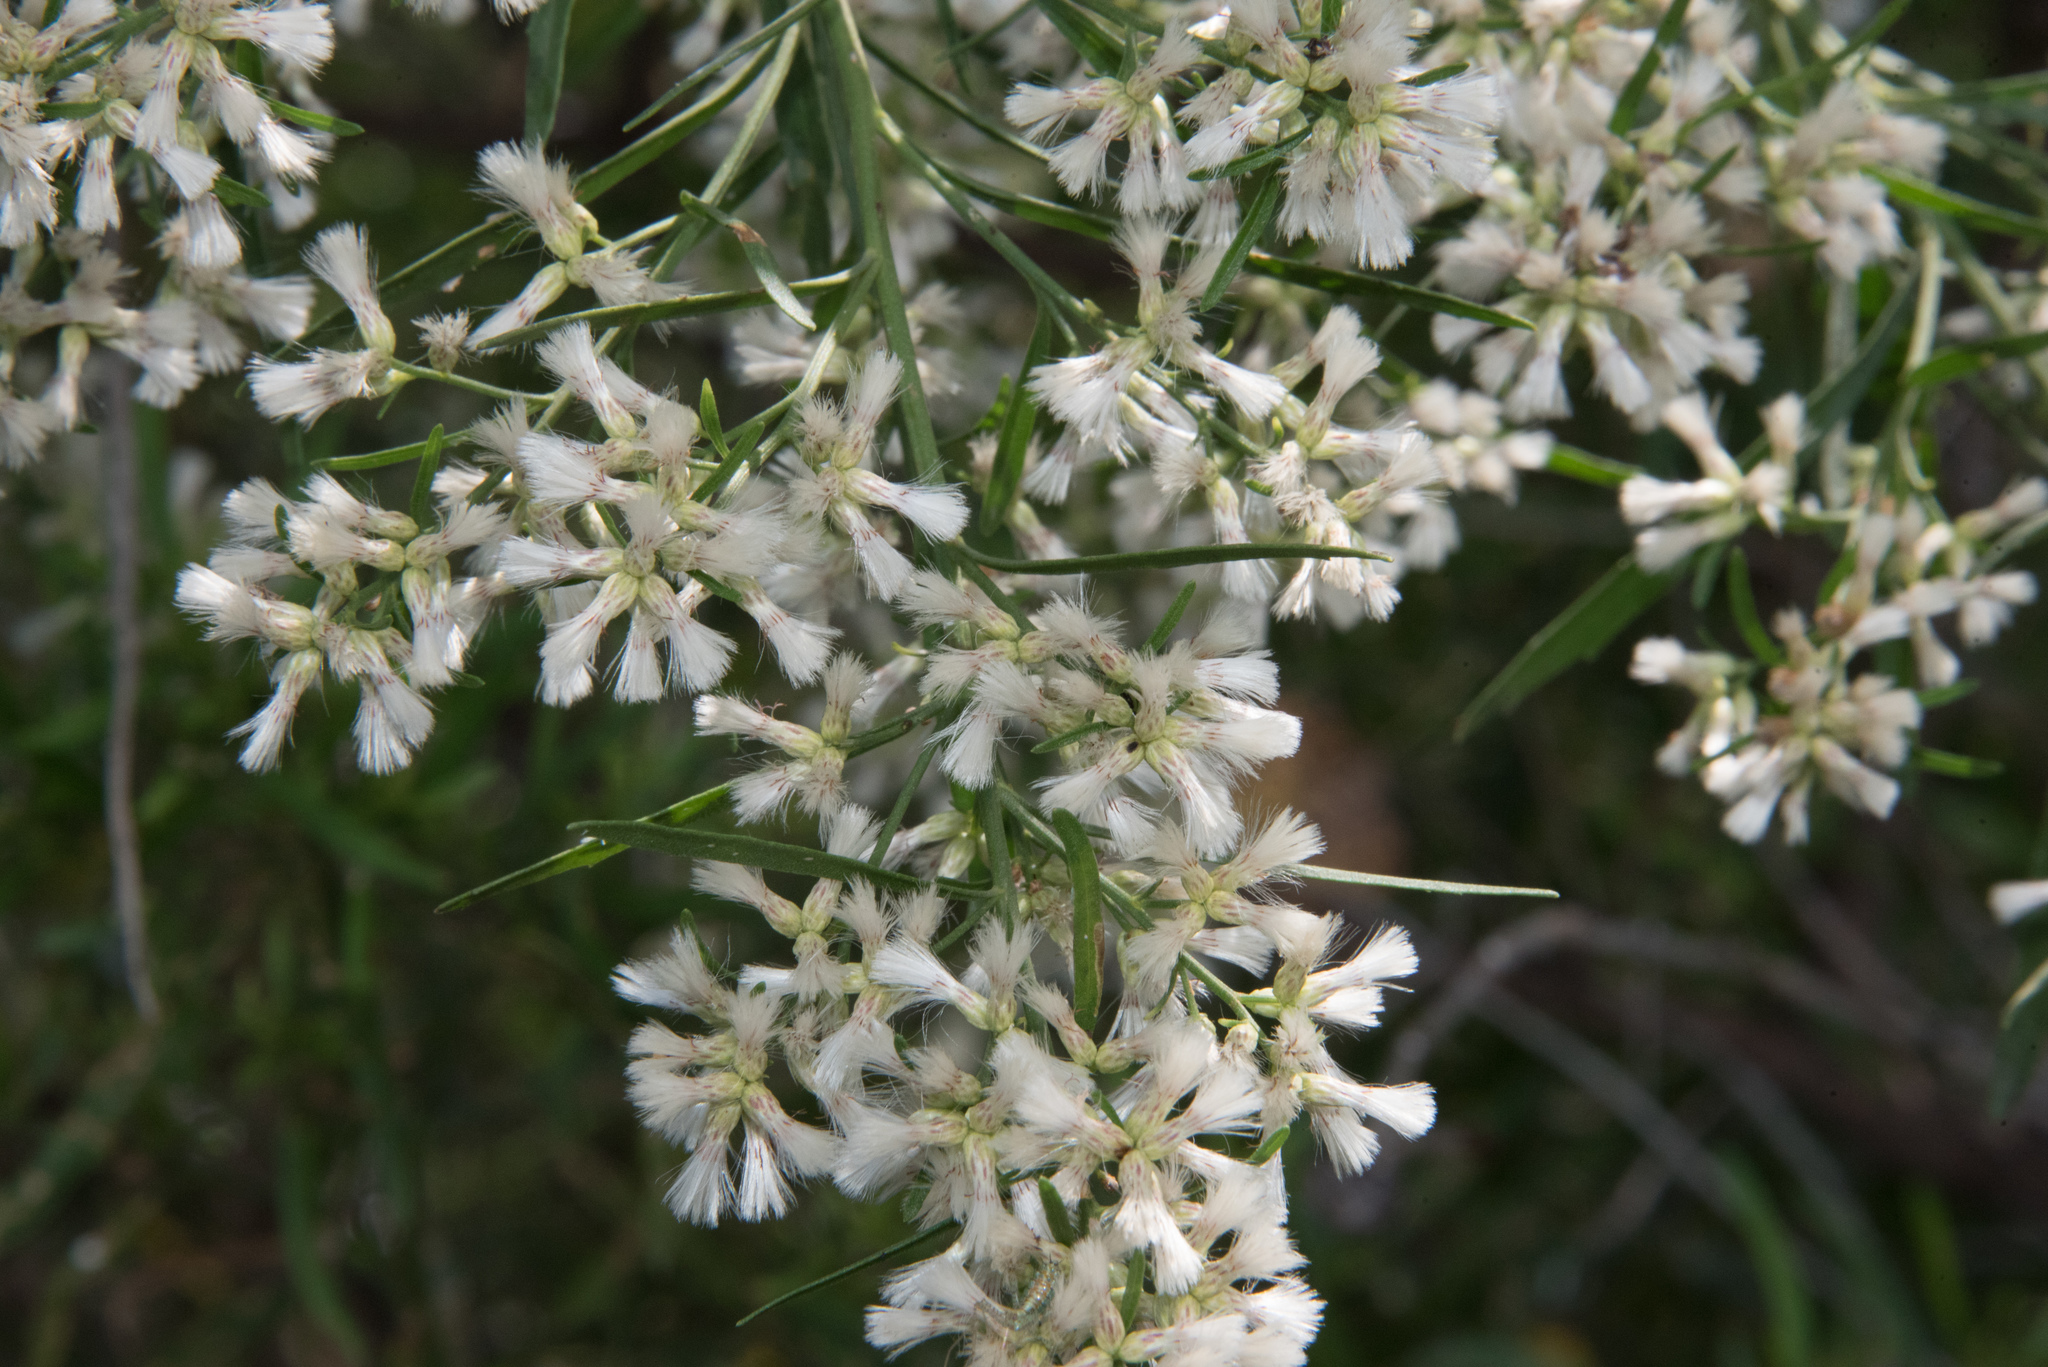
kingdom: Plantae
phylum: Tracheophyta
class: Magnoliopsida
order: Asterales
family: Asteraceae
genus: Baccharis
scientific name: Baccharis salicifolia
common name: Sticky baccharis
